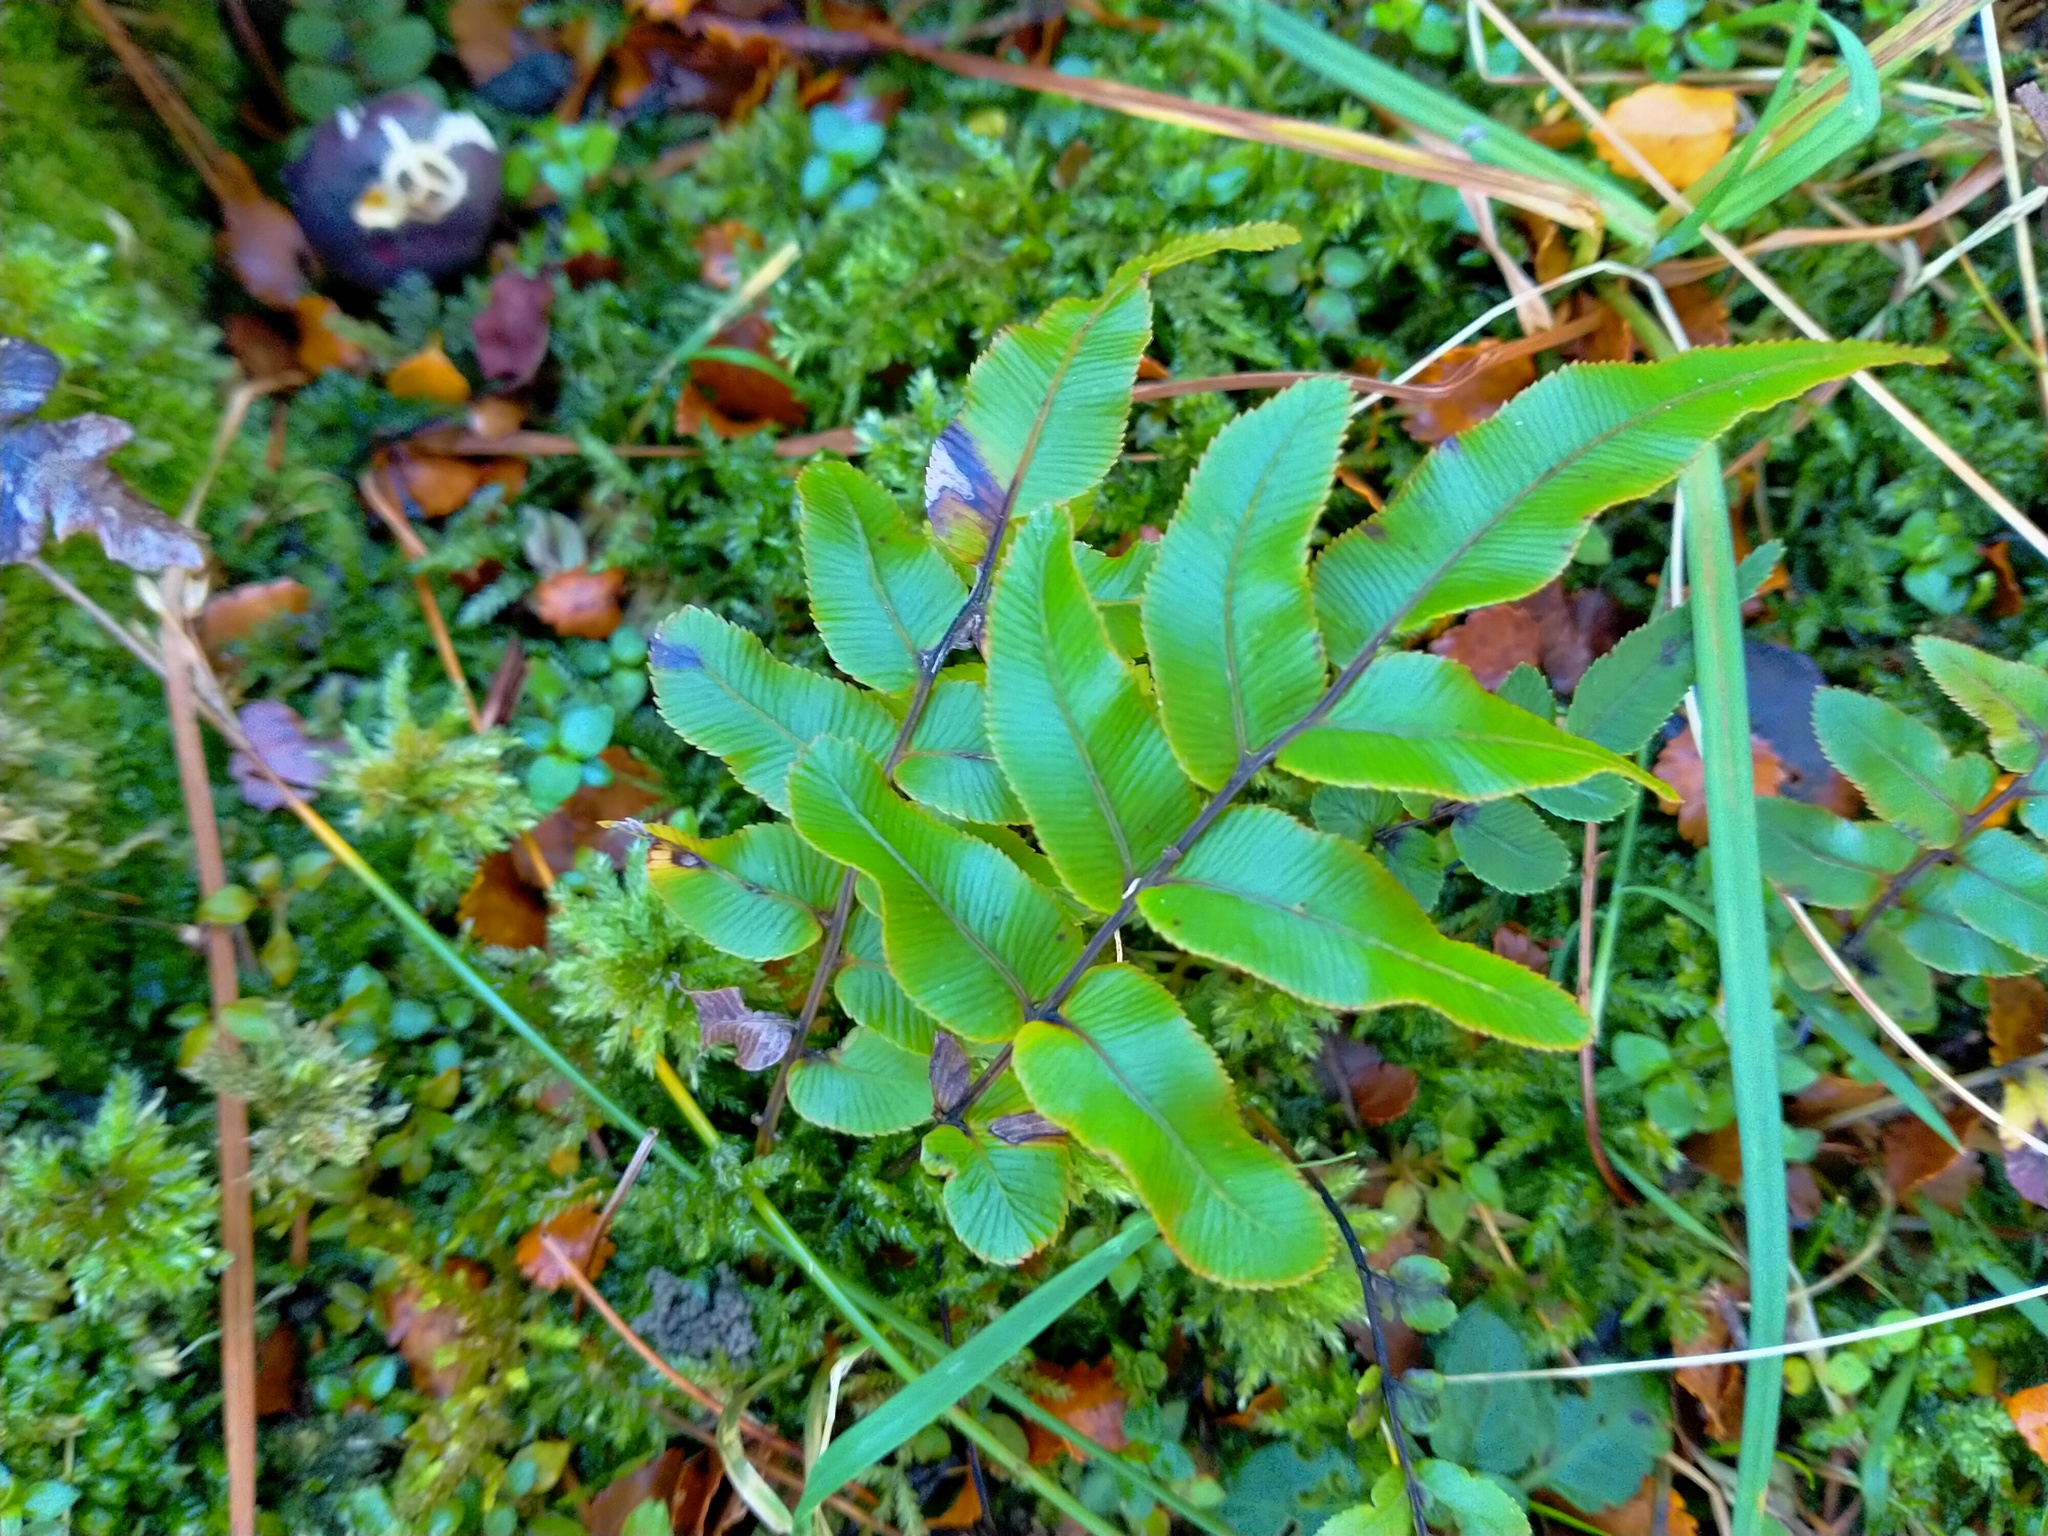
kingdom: Plantae
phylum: Tracheophyta
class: Polypodiopsida
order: Polypodiales
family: Blechnaceae
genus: Parablechnum
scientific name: Parablechnum procerum
